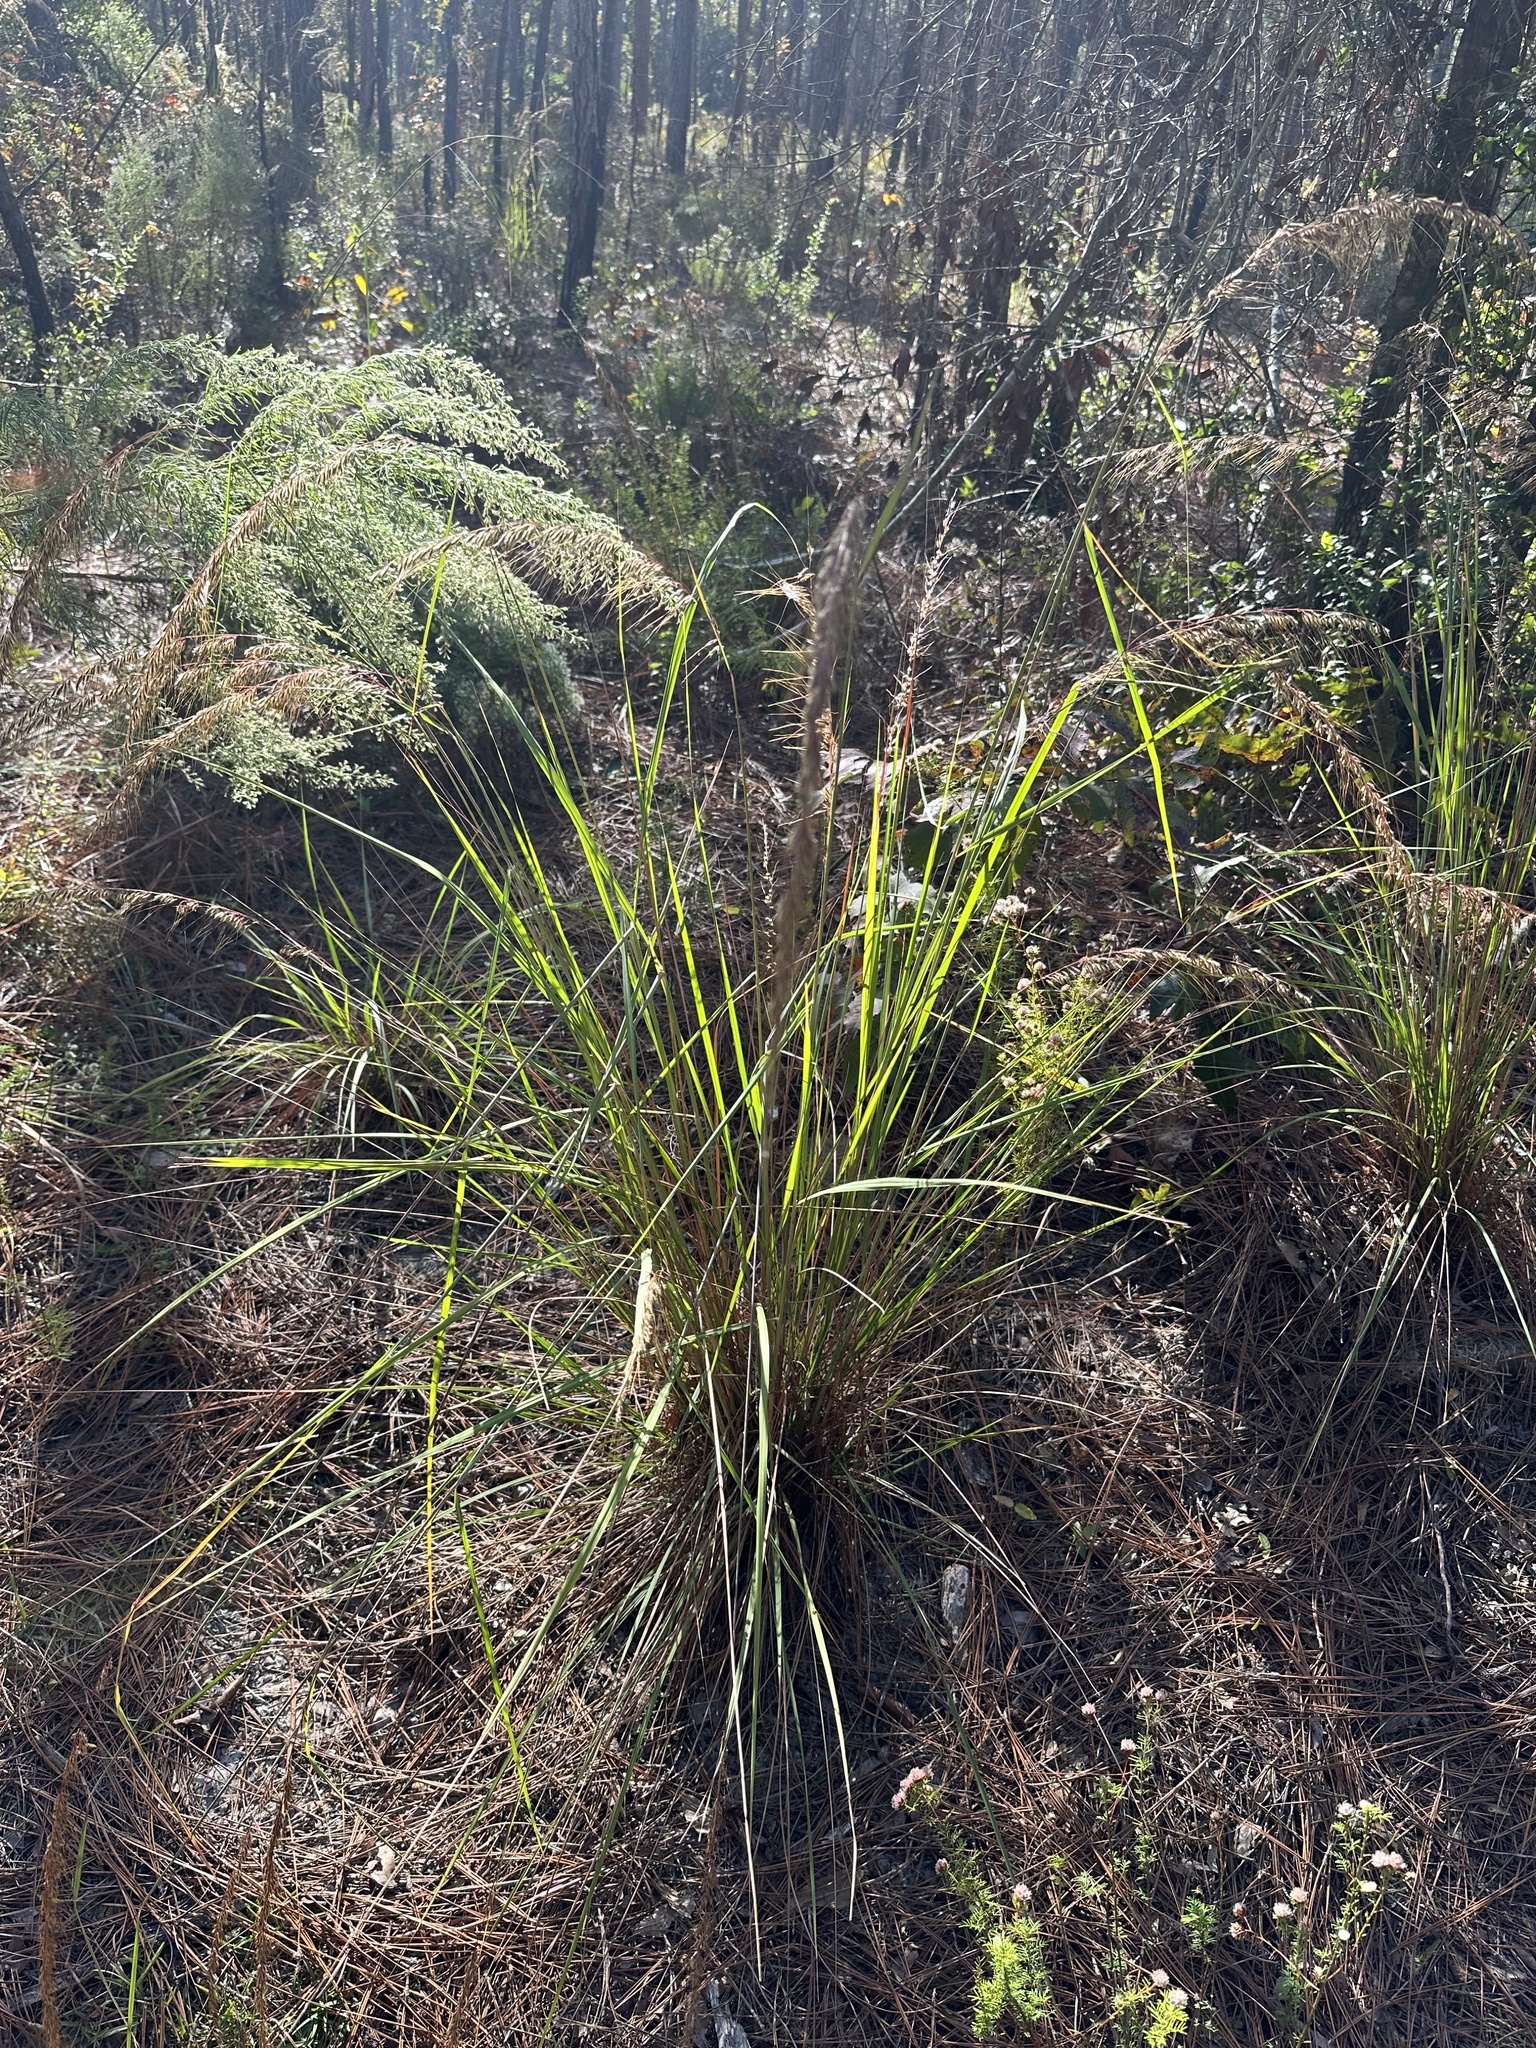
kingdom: Plantae
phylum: Tracheophyta
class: Liliopsida
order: Poales
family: Poaceae
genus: Sorghastrum
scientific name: Sorghastrum secundum
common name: Lopsided indian grass
